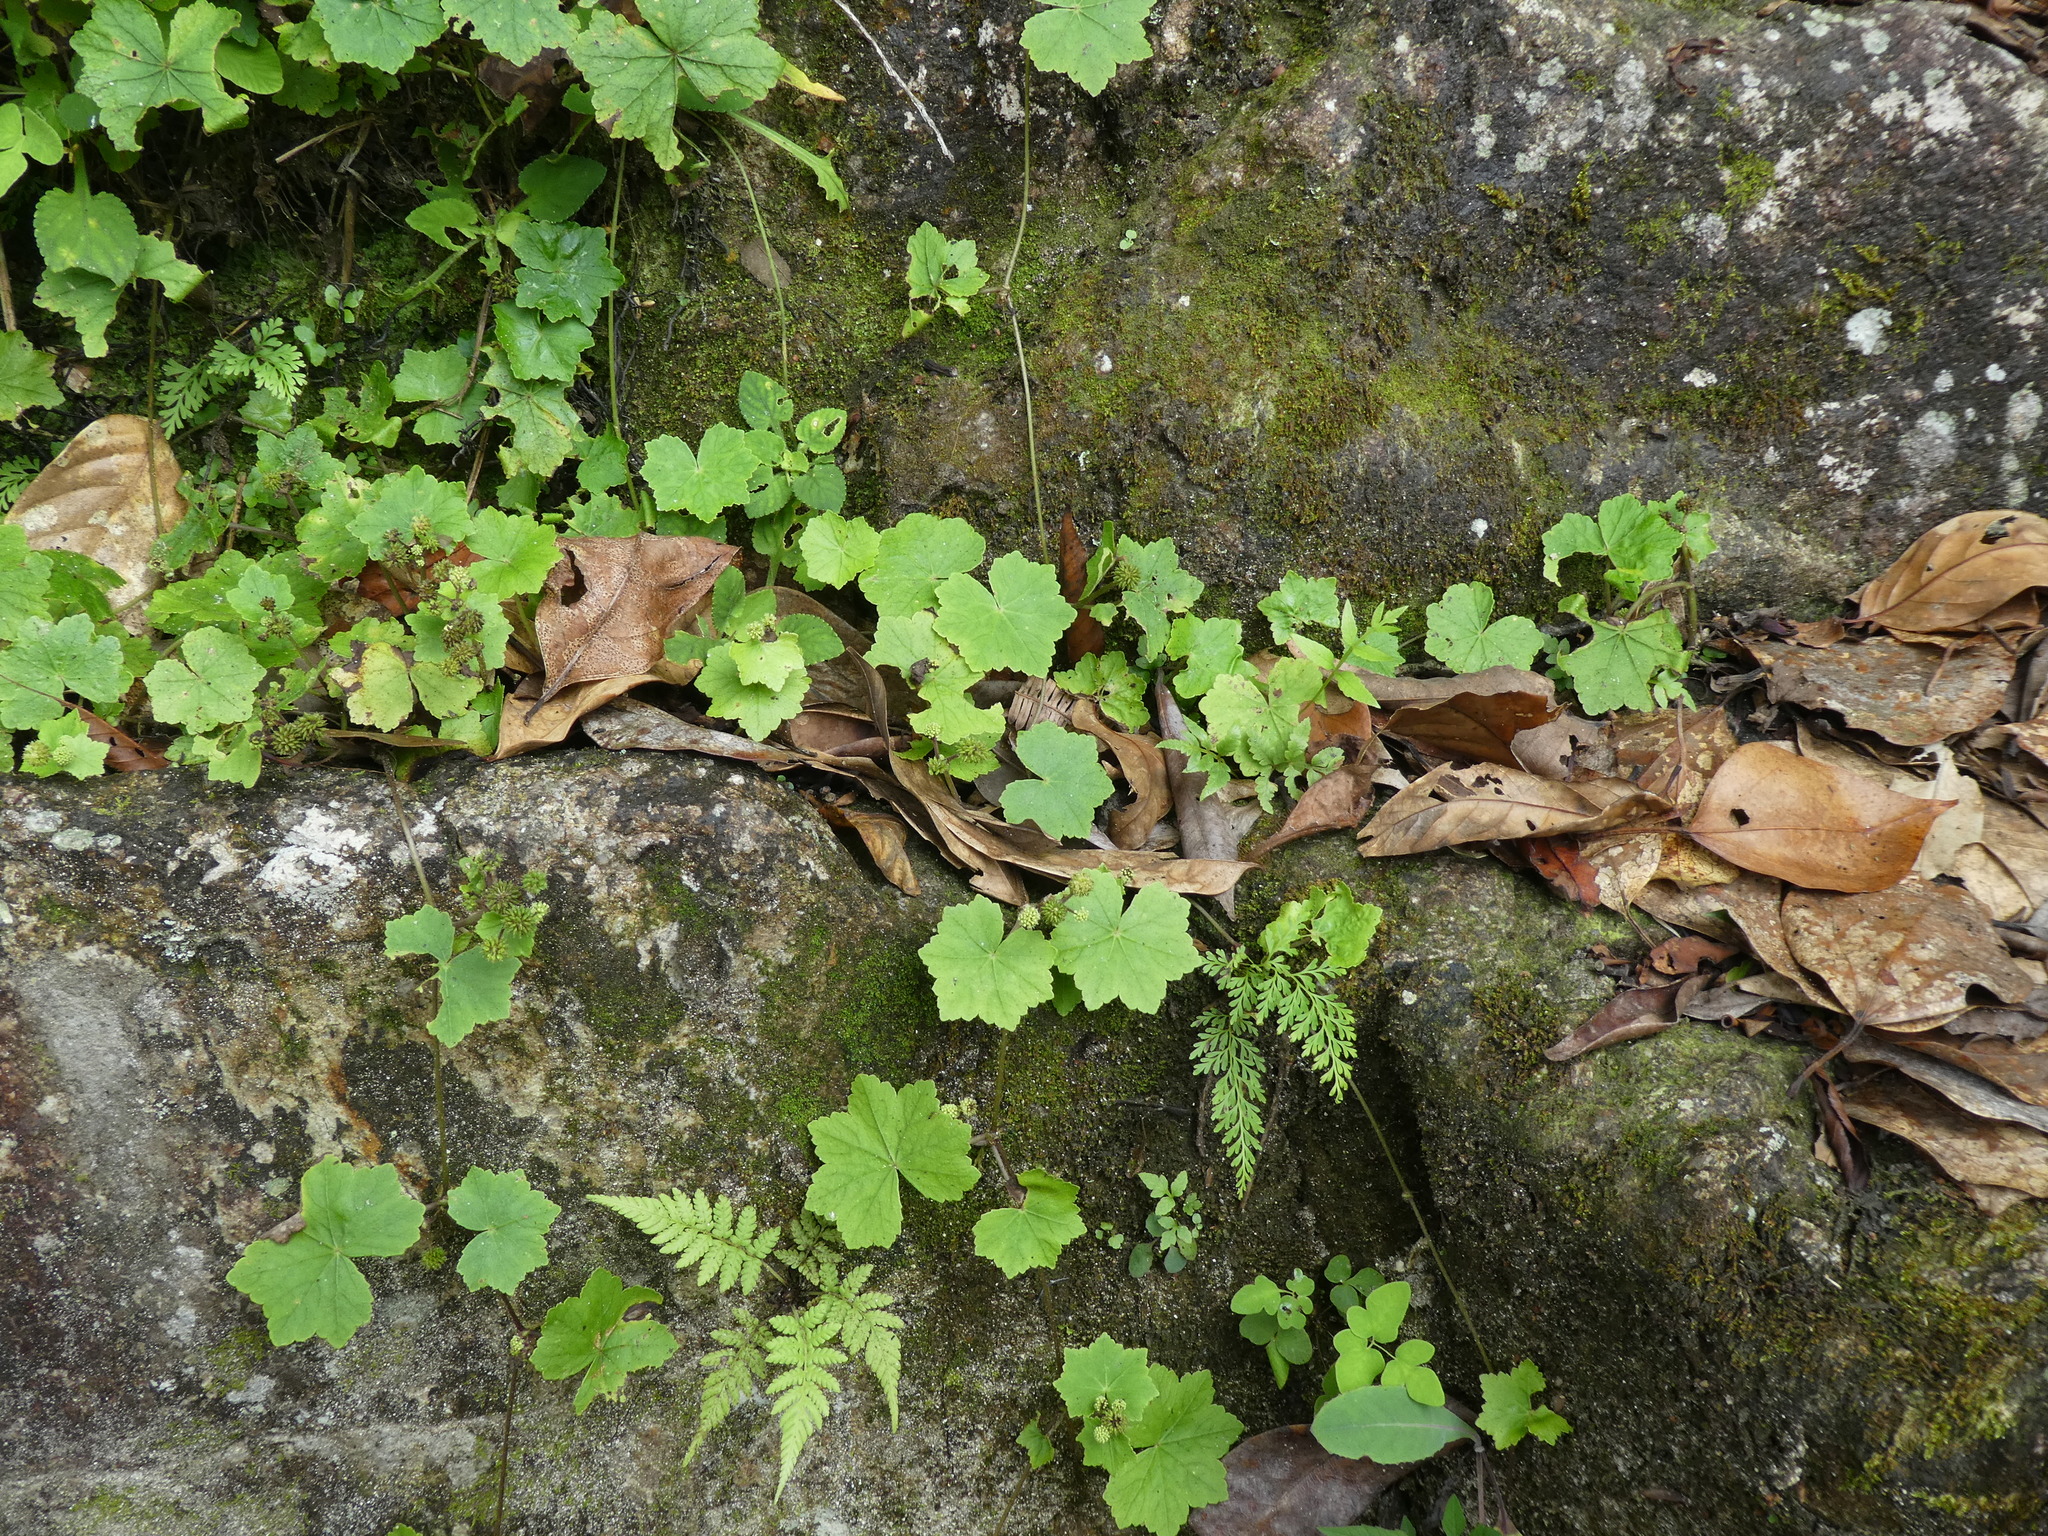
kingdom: Plantae
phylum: Tracheophyta
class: Magnoliopsida
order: Apiales
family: Araliaceae
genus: Hydrocotyle
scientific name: Hydrocotyle nepalensis
